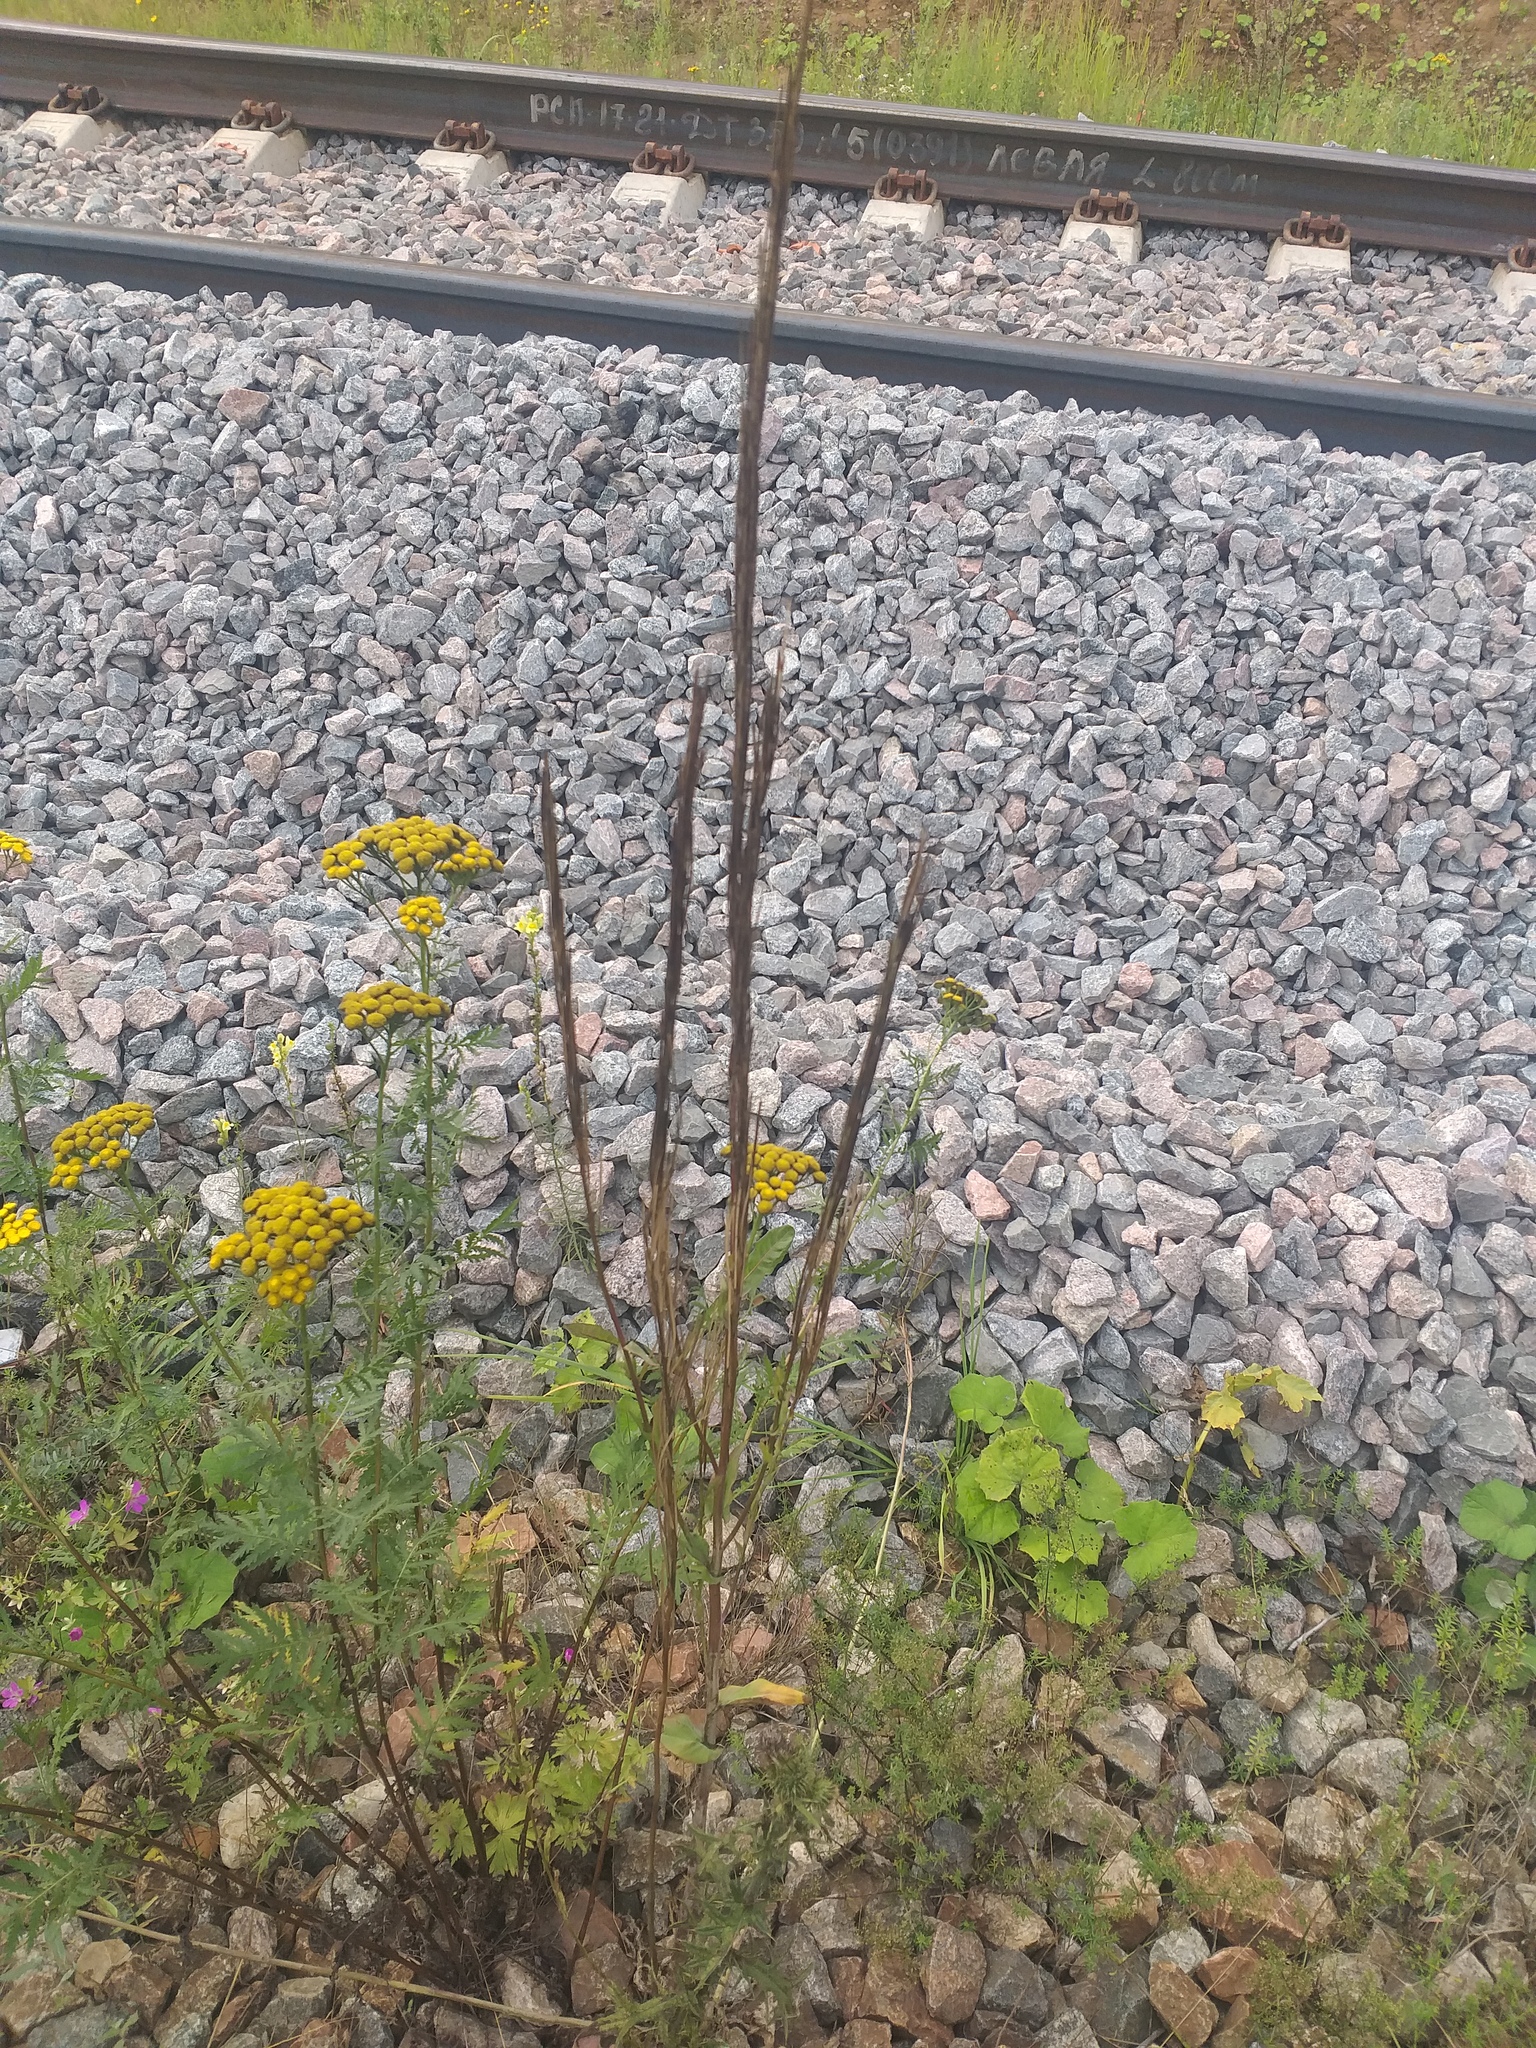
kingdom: Plantae
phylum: Tracheophyta
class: Magnoliopsida
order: Brassicales
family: Brassicaceae
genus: Turritis
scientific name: Turritis glabra
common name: Tower rockcress
